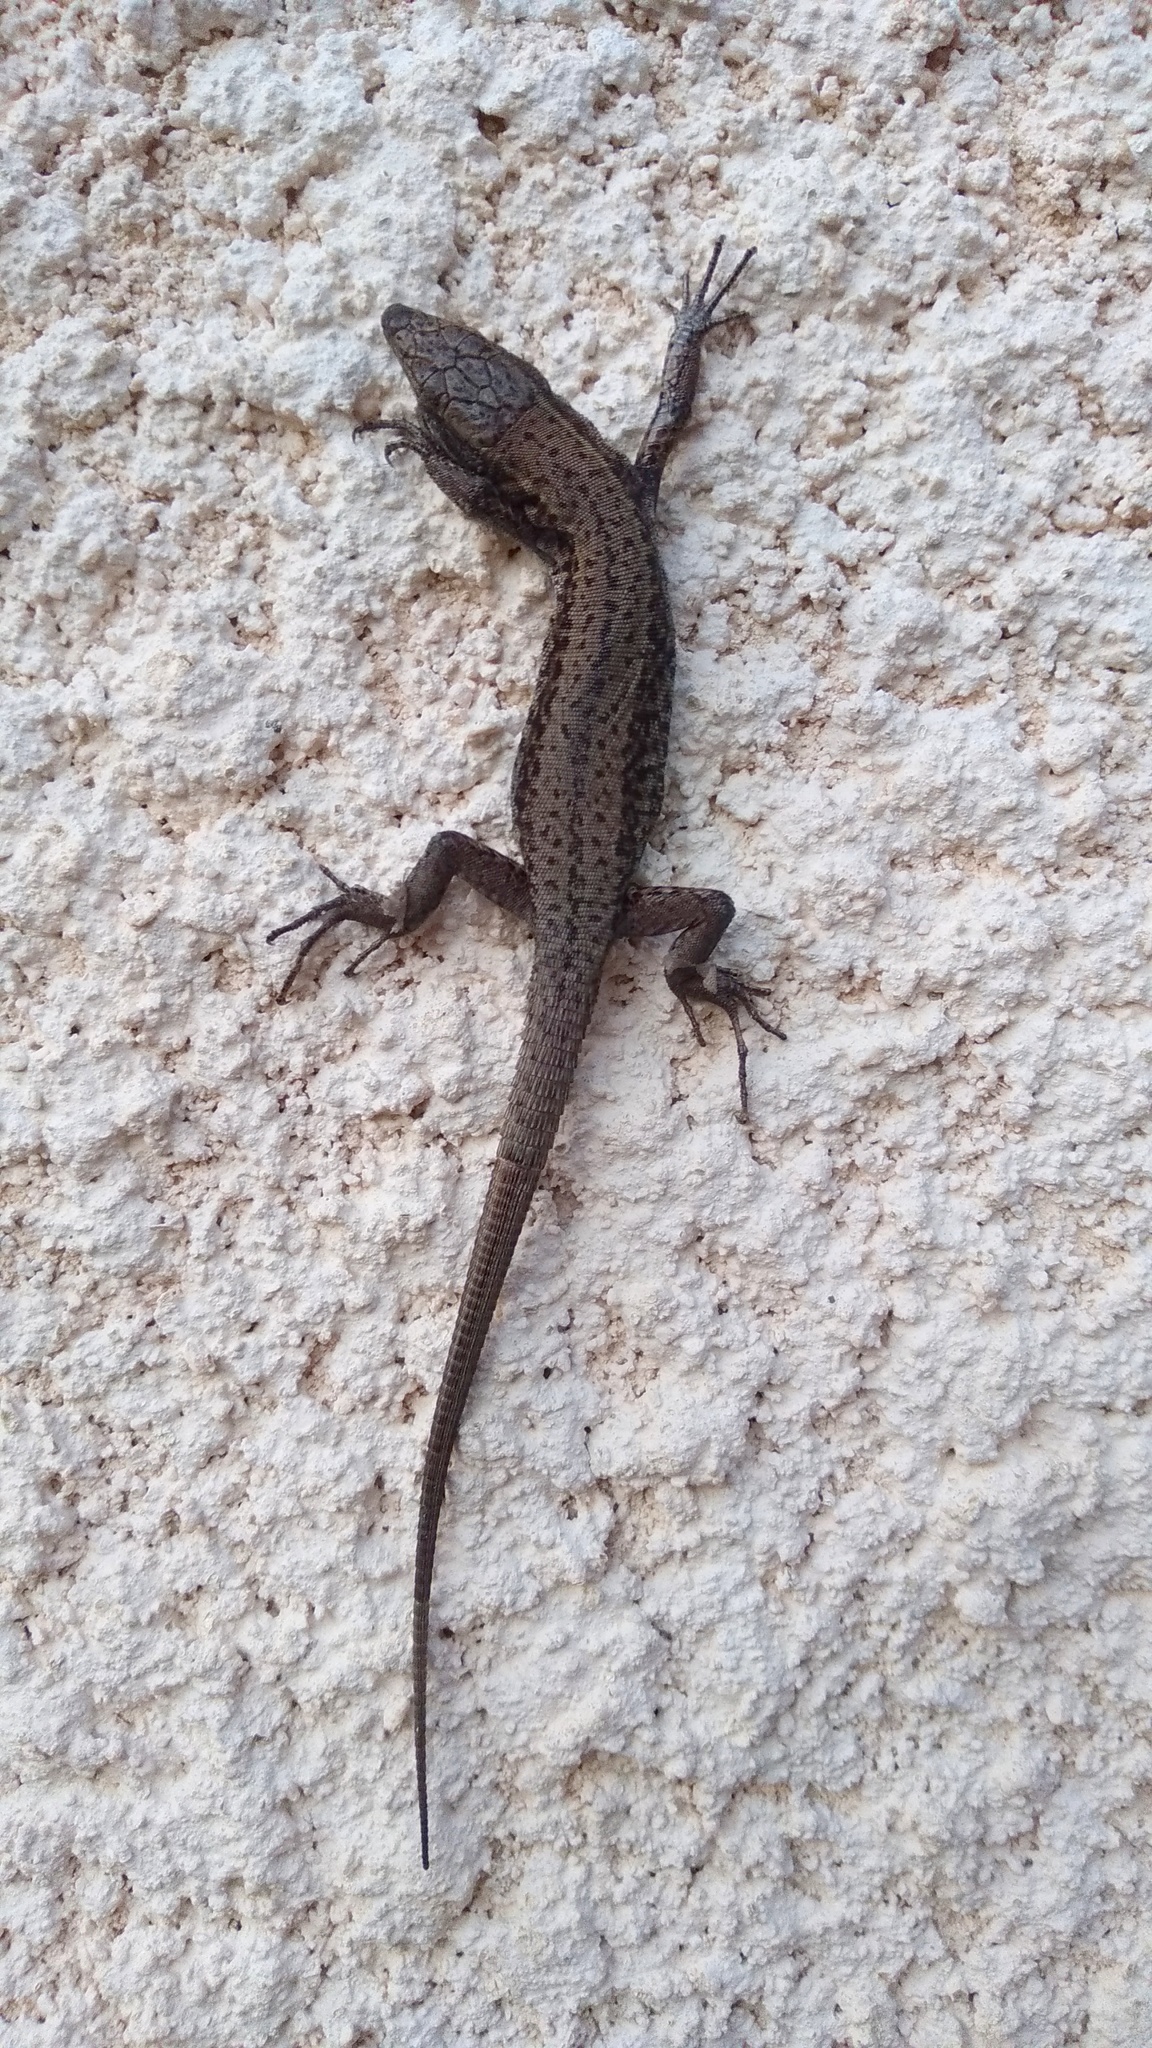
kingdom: Animalia
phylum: Chordata
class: Squamata
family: Lacertidae
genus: Podarcis
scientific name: Podarcis muralis
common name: Common wall lizard
